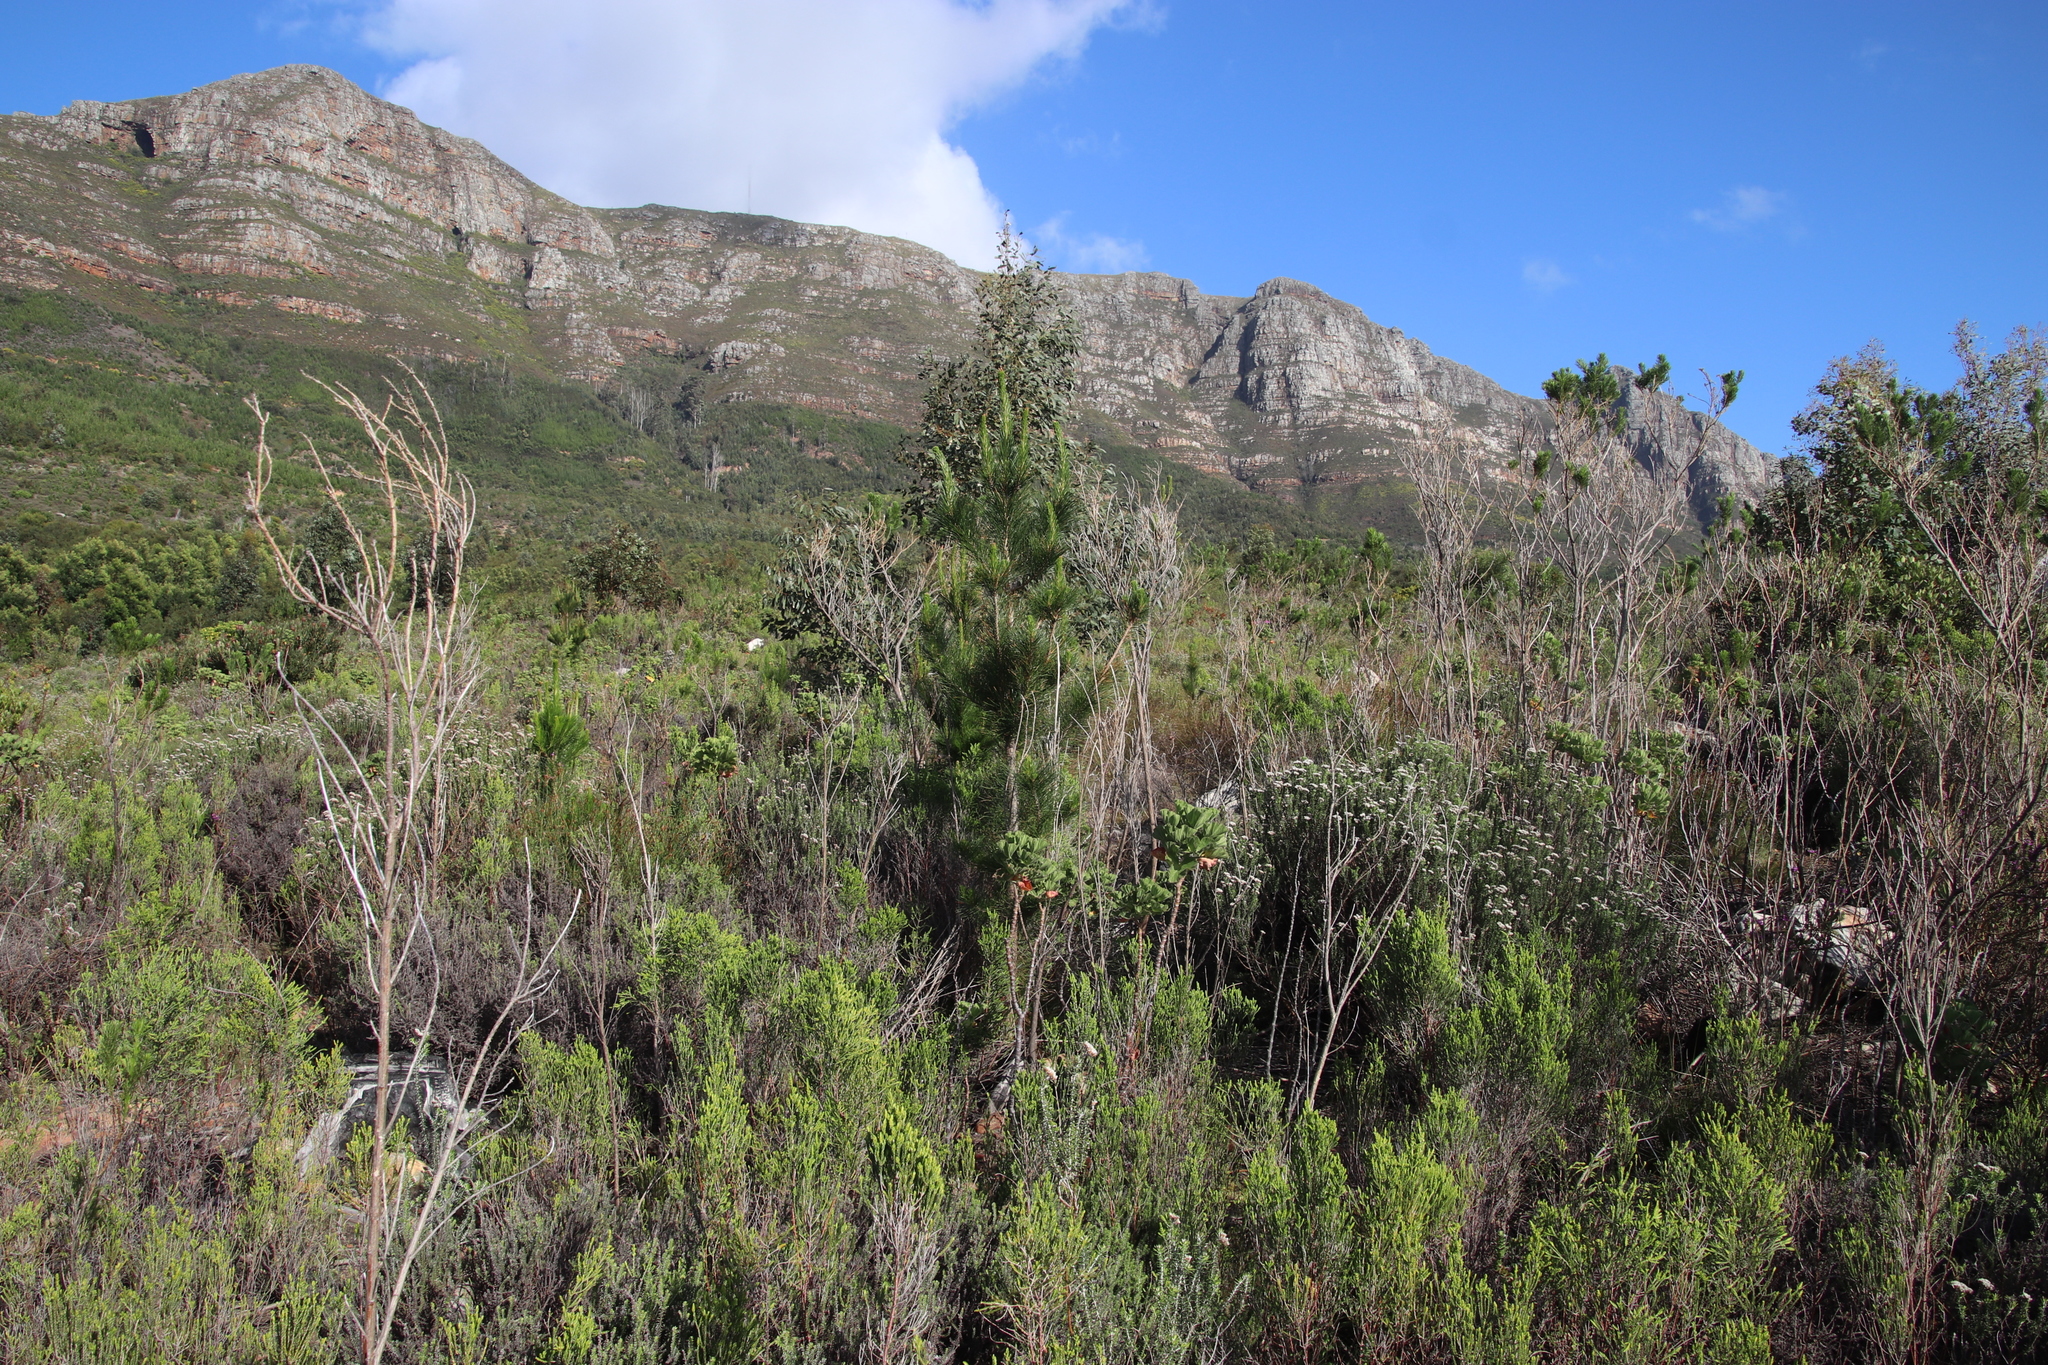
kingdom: Plantae
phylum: Tracheophyta
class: Pinopsida
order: Pinales
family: Pinaceae
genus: Pinus
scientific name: Pinus radiata
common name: Monterey pine
